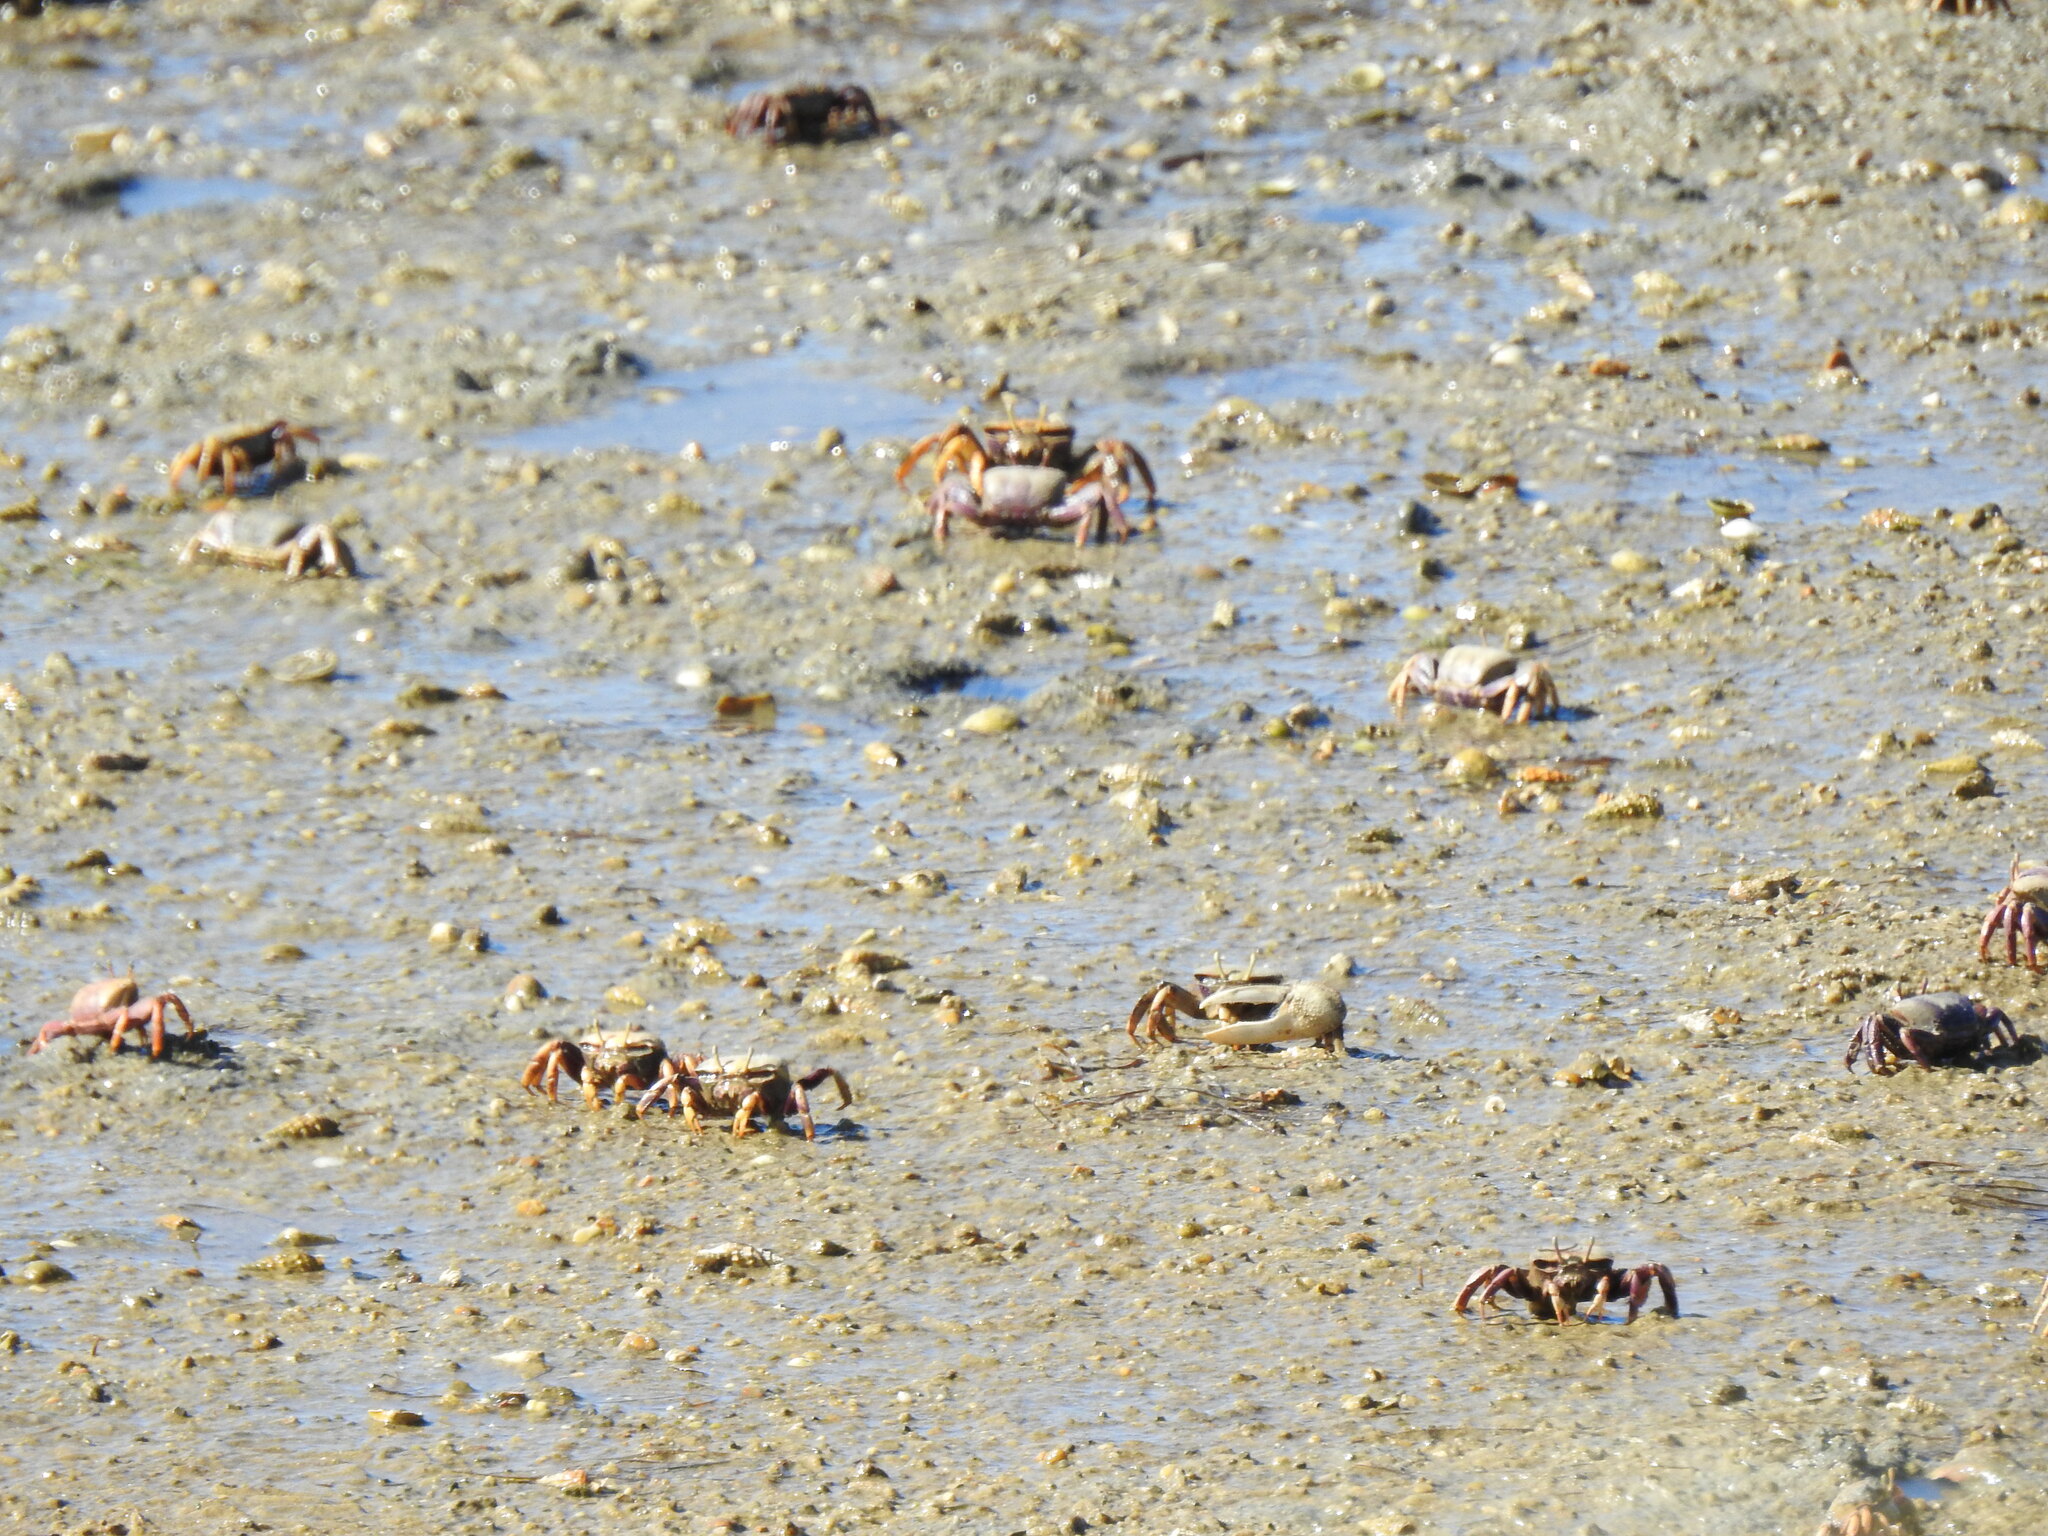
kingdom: Animalia
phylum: Arthropoda
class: Malacostraca
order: Decapoda
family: Ocypodidae
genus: Afruca
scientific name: Afruca tangeri
